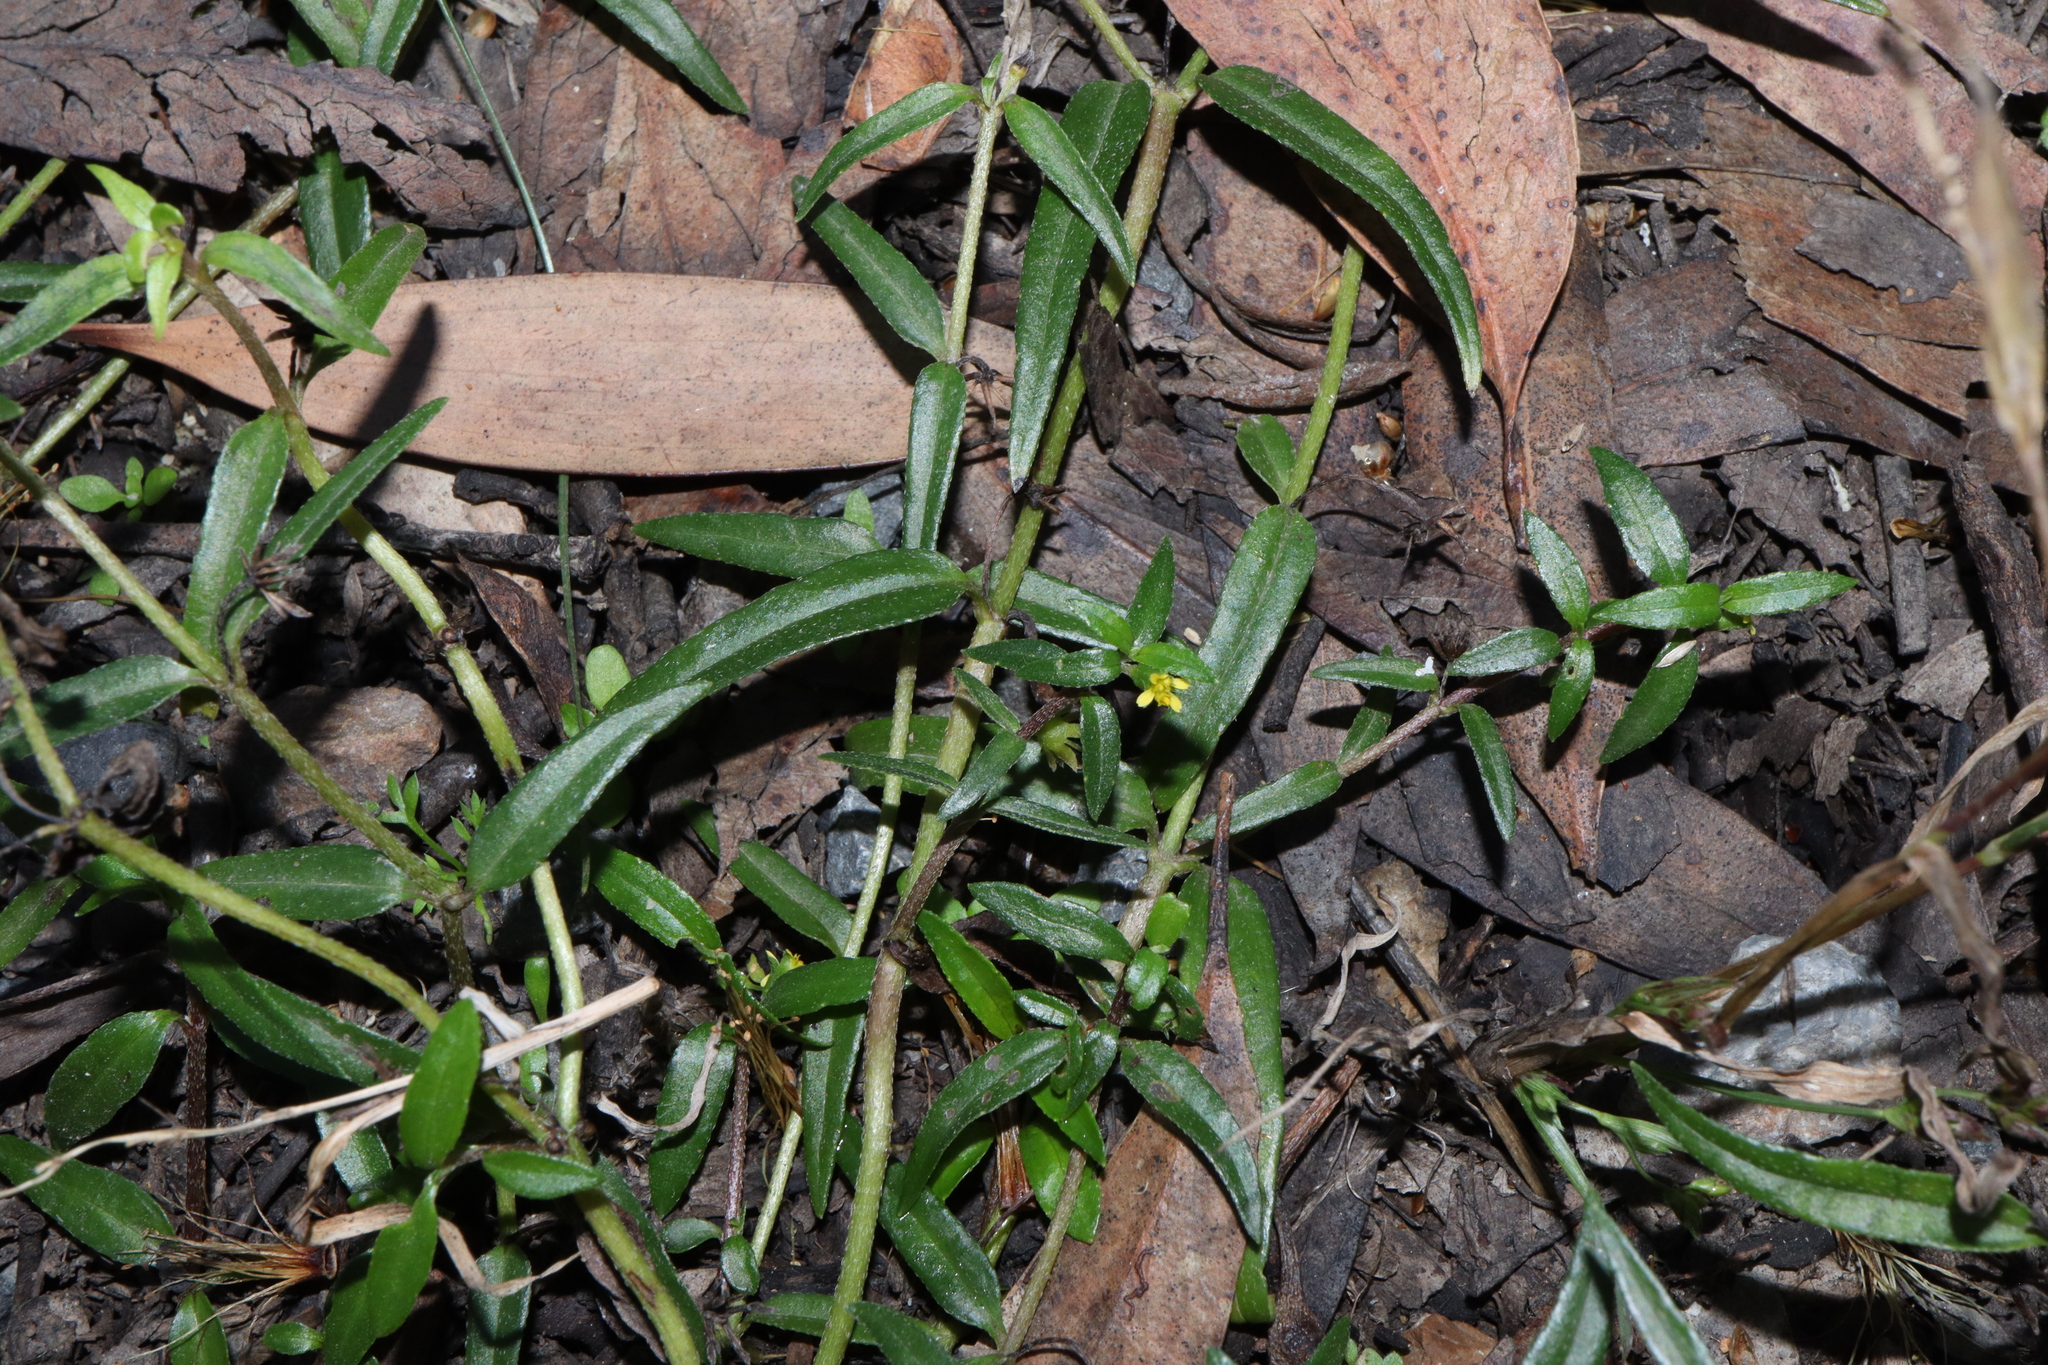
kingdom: Plantae
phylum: Tracheophyta
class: Magnoliopsida
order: Asterales
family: Asteraceae
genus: Eclipta
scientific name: Eclipta platyglossa
